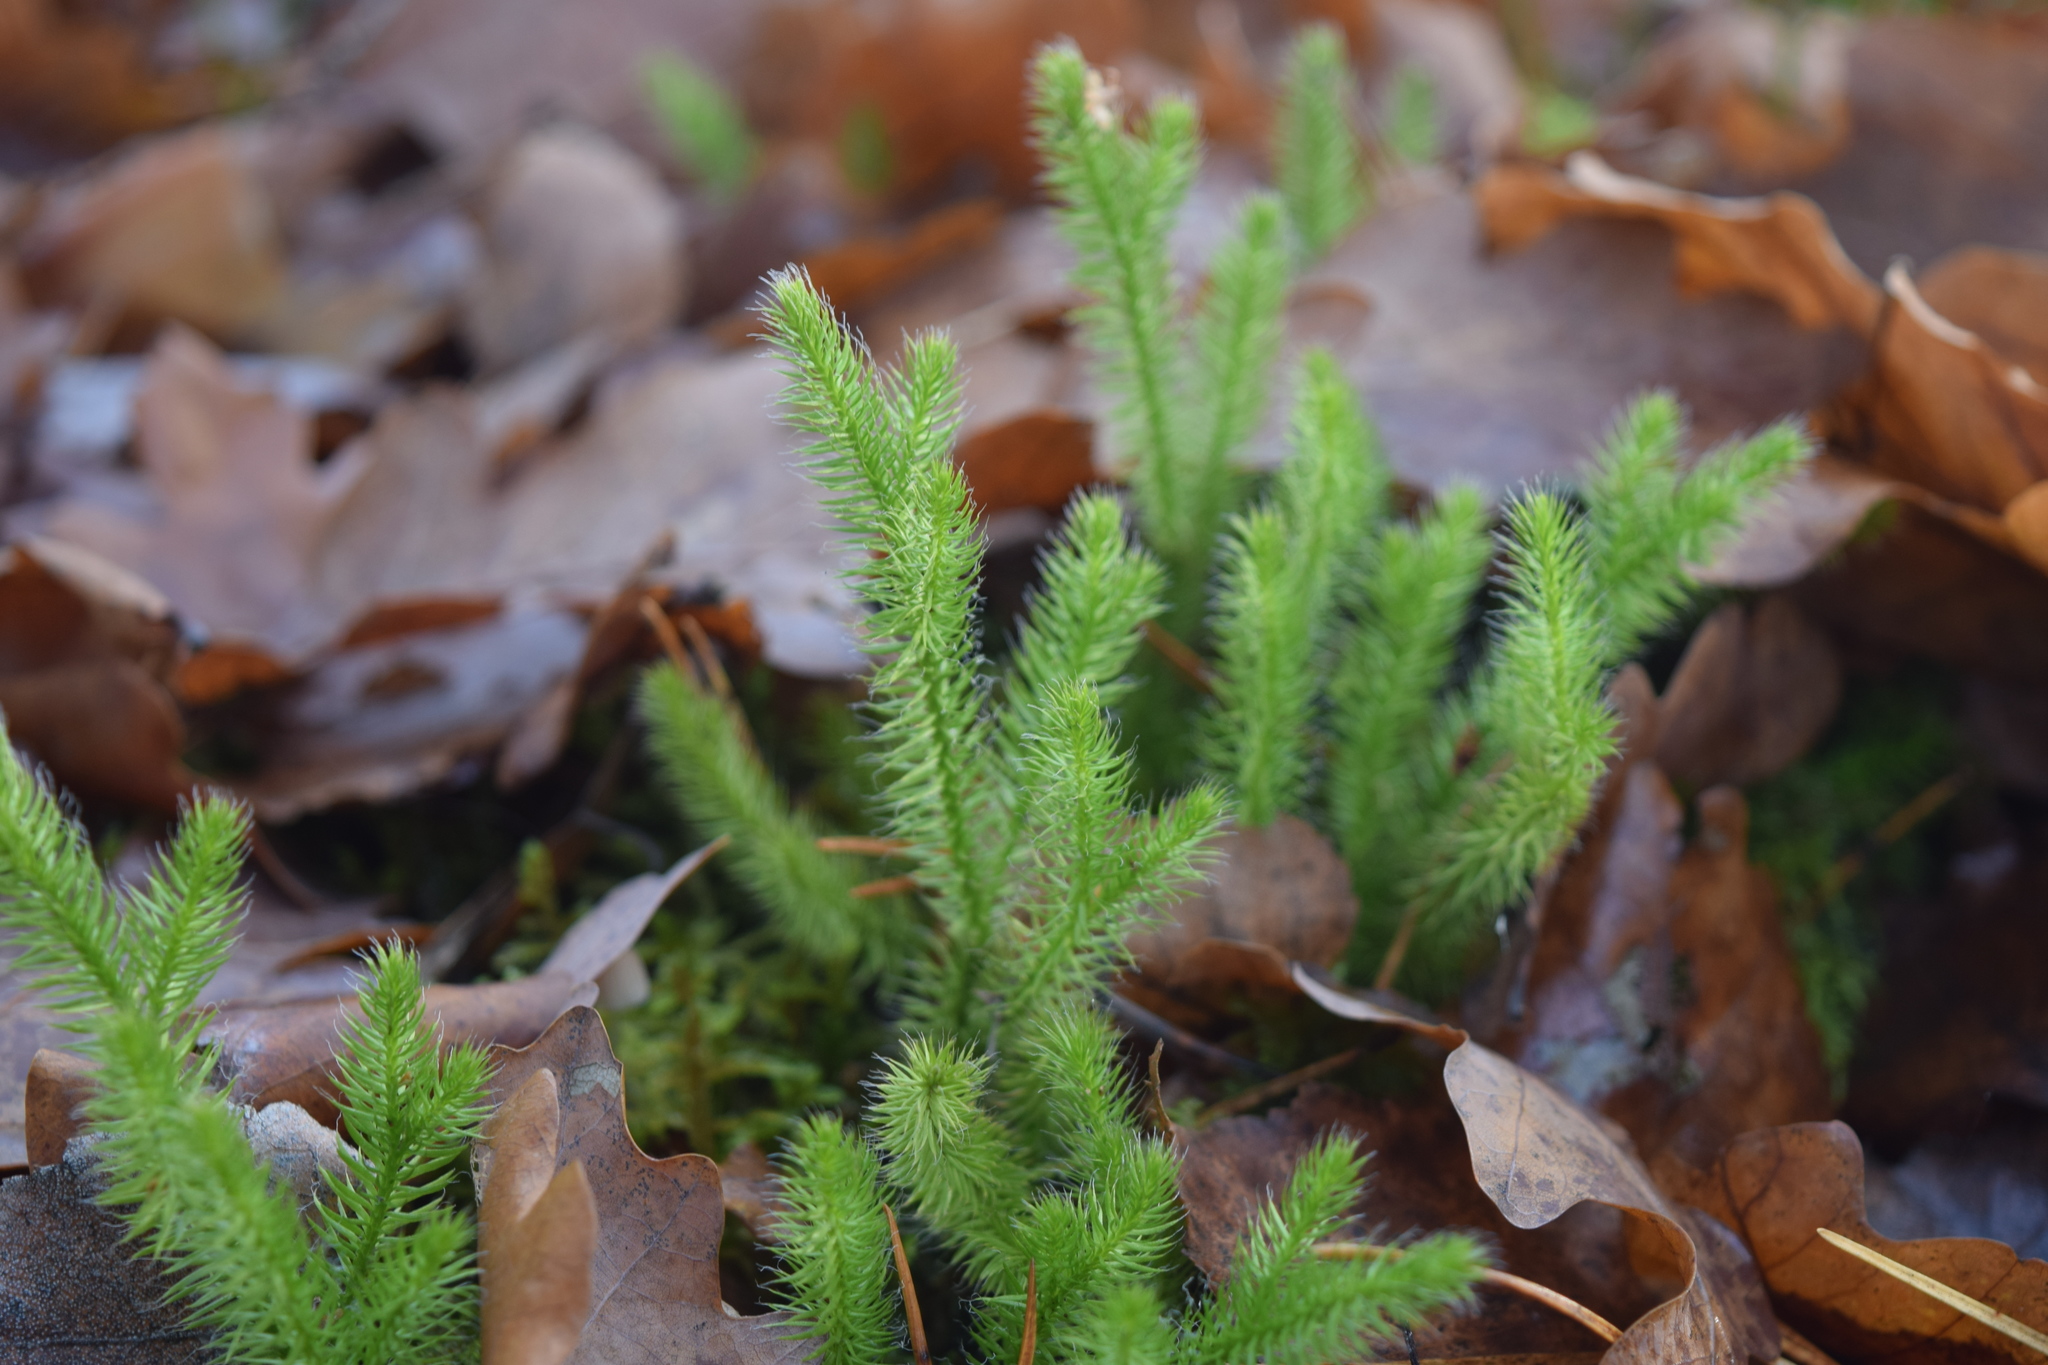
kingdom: Plantae
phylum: Tracheophyta
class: Lycopodiopsida
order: Lycopodiales
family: Lycopodiaceae
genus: Lycopodium
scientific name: Lycopodium clavatum
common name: Stag's-horn clubmoss
